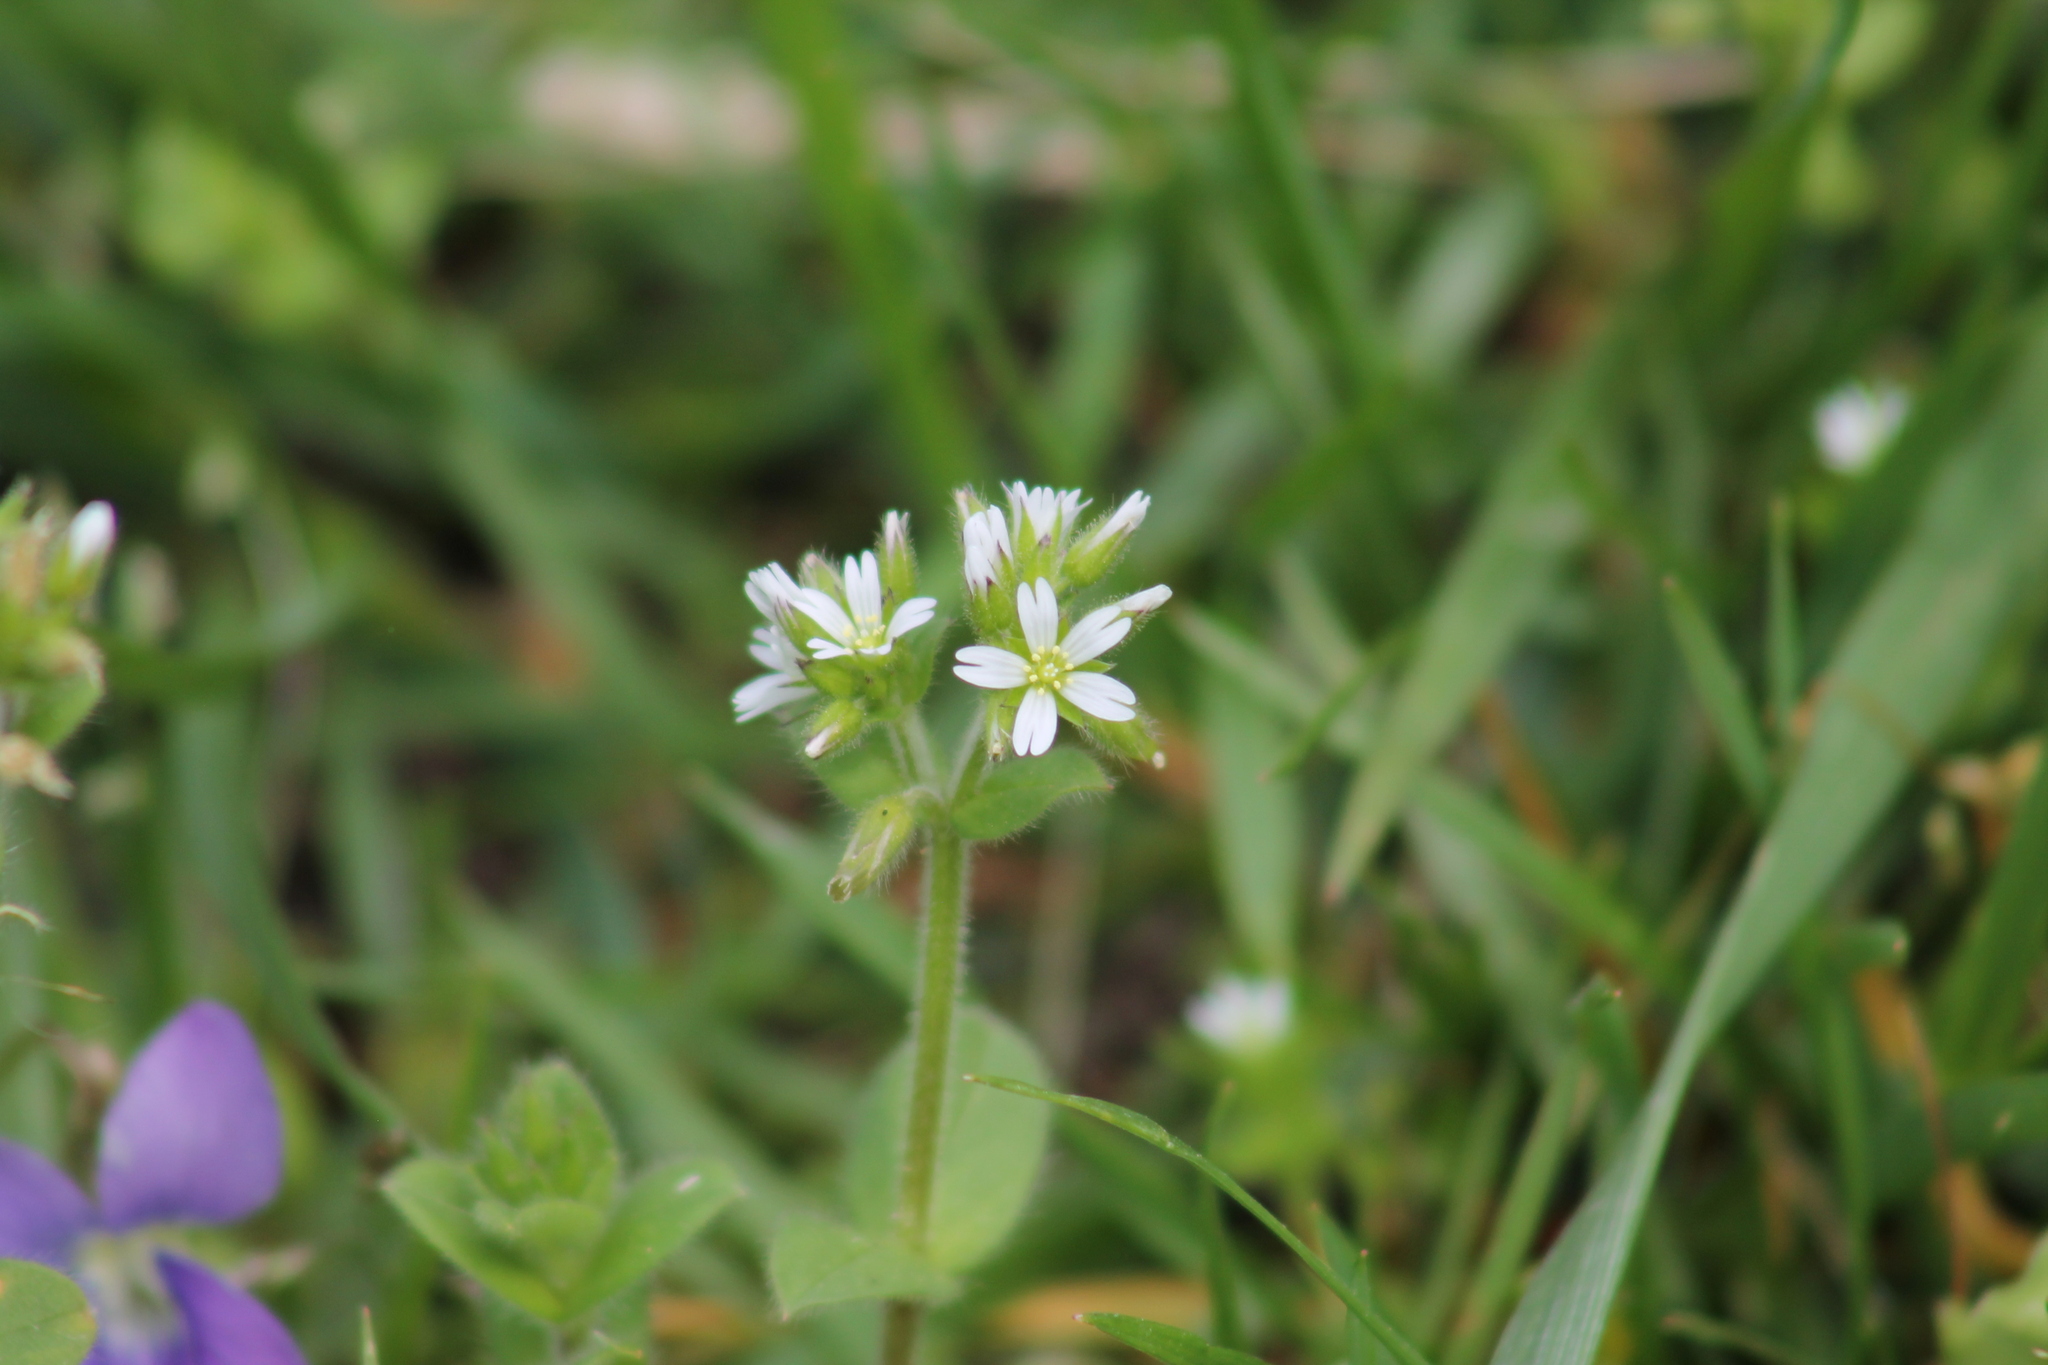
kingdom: Plantae
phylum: Tracheophyta
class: Magnoliopsida
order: Caryophyllales
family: Caryophyllaceae
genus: Cerastium
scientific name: Cerastium glomeratum
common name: Sticky chickweed
